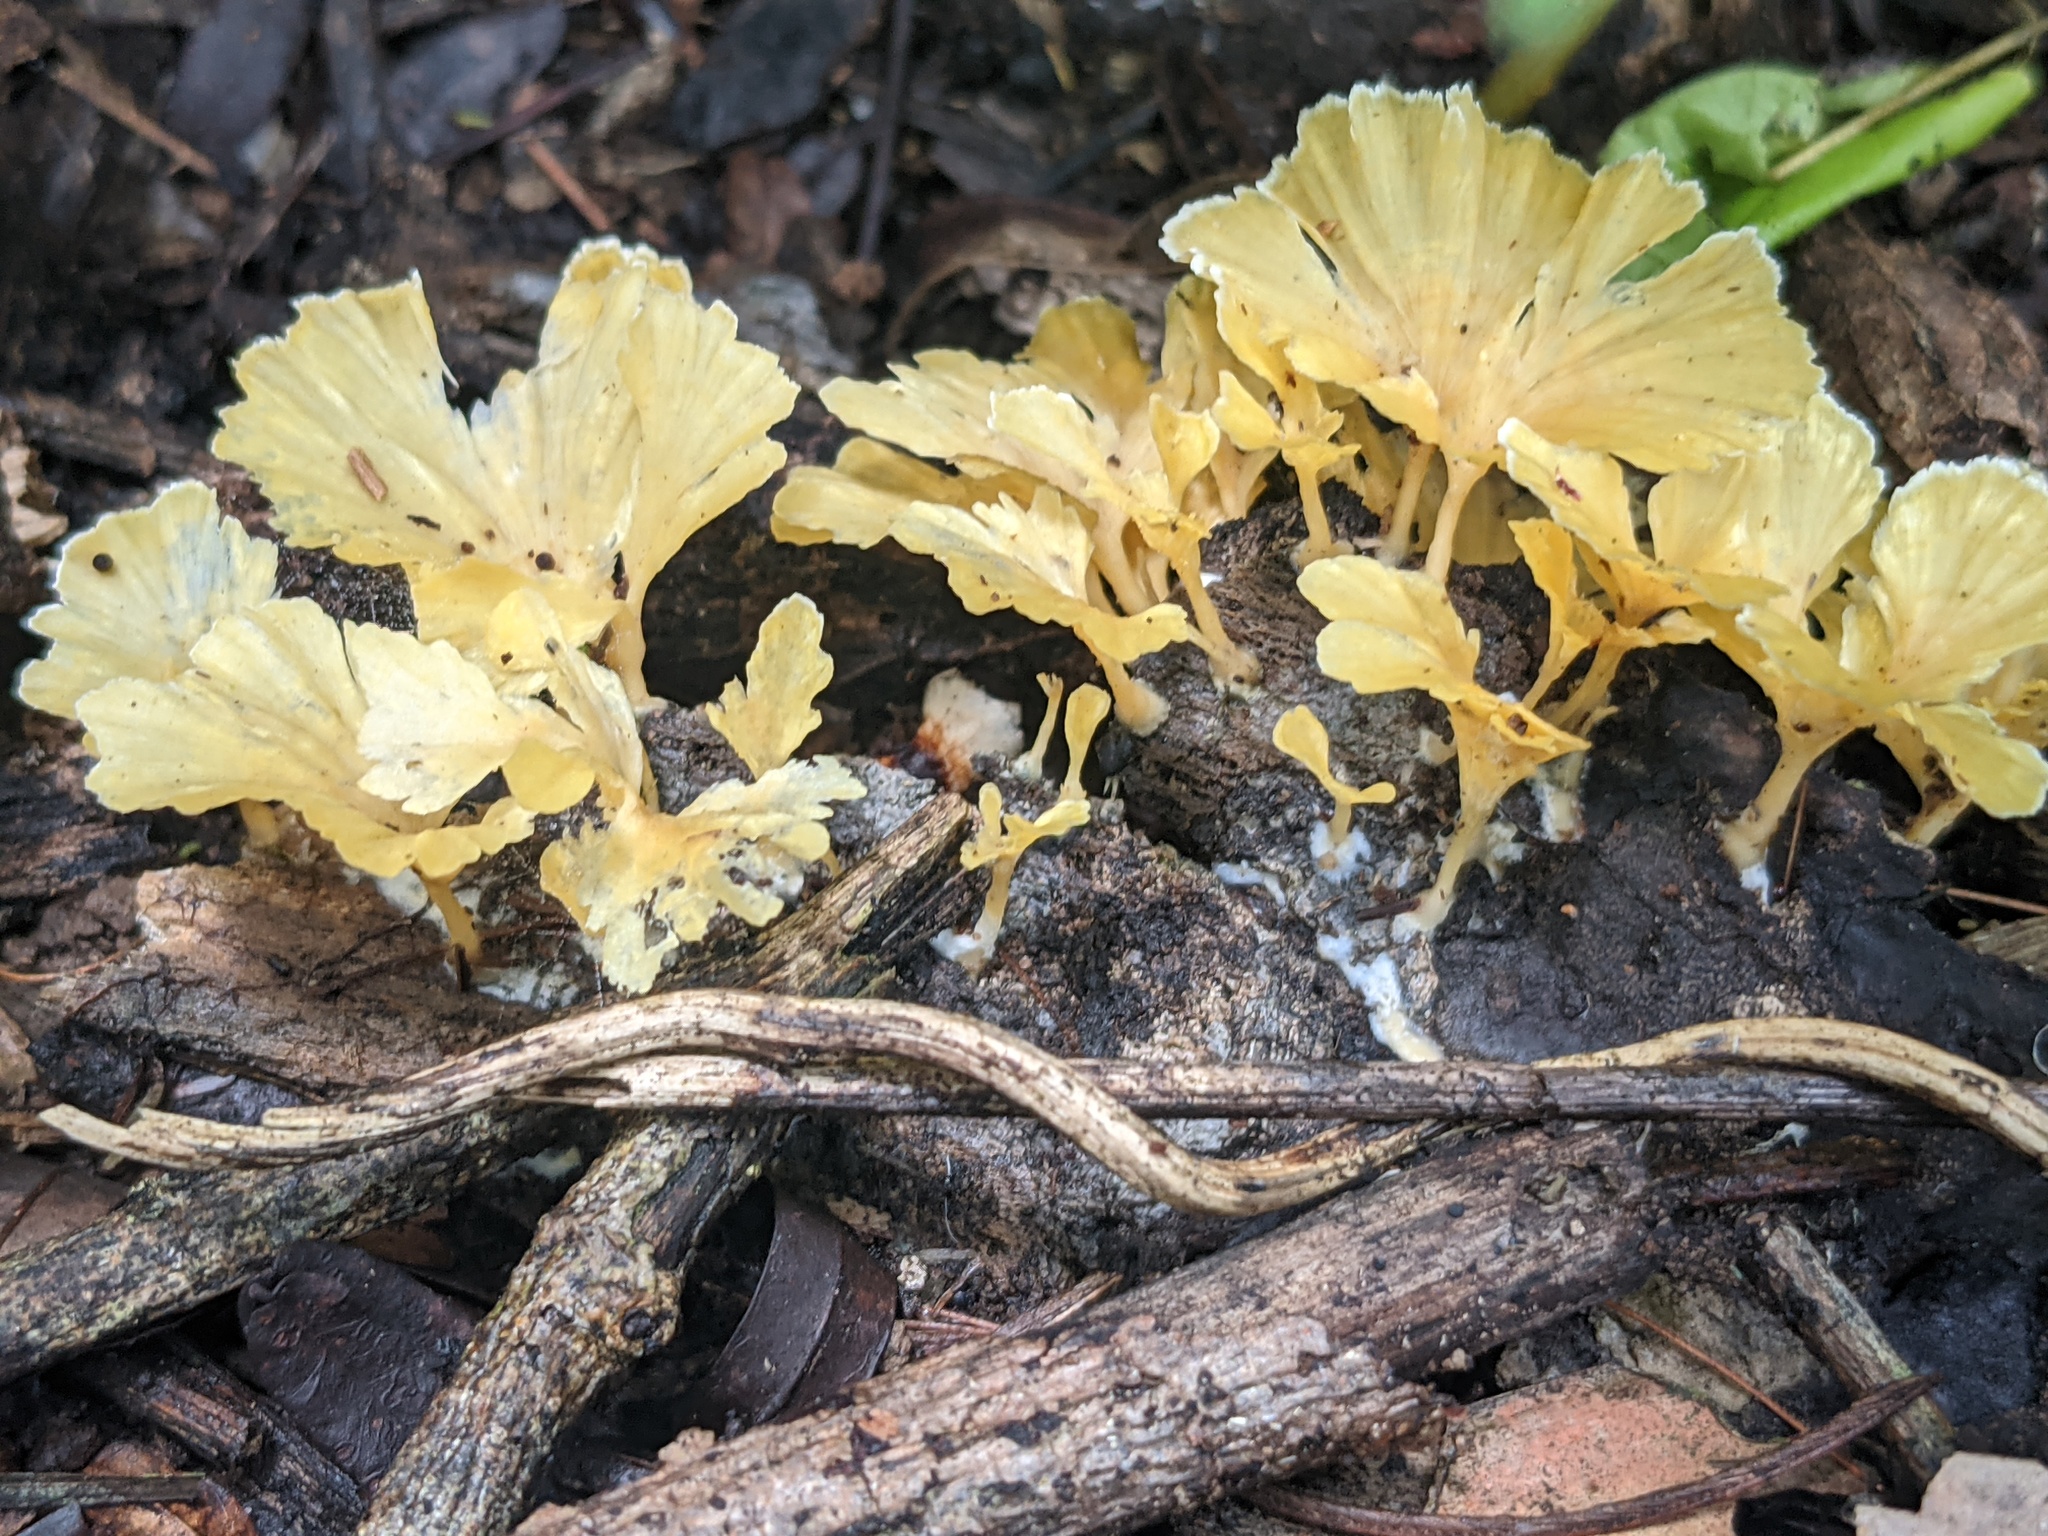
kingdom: Fungi
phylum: Basidiomycota
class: Agaricomycetes
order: Hymenochaetales
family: Rickenellaceae
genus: Cotylidia
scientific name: Cotylidia aurantiaca
